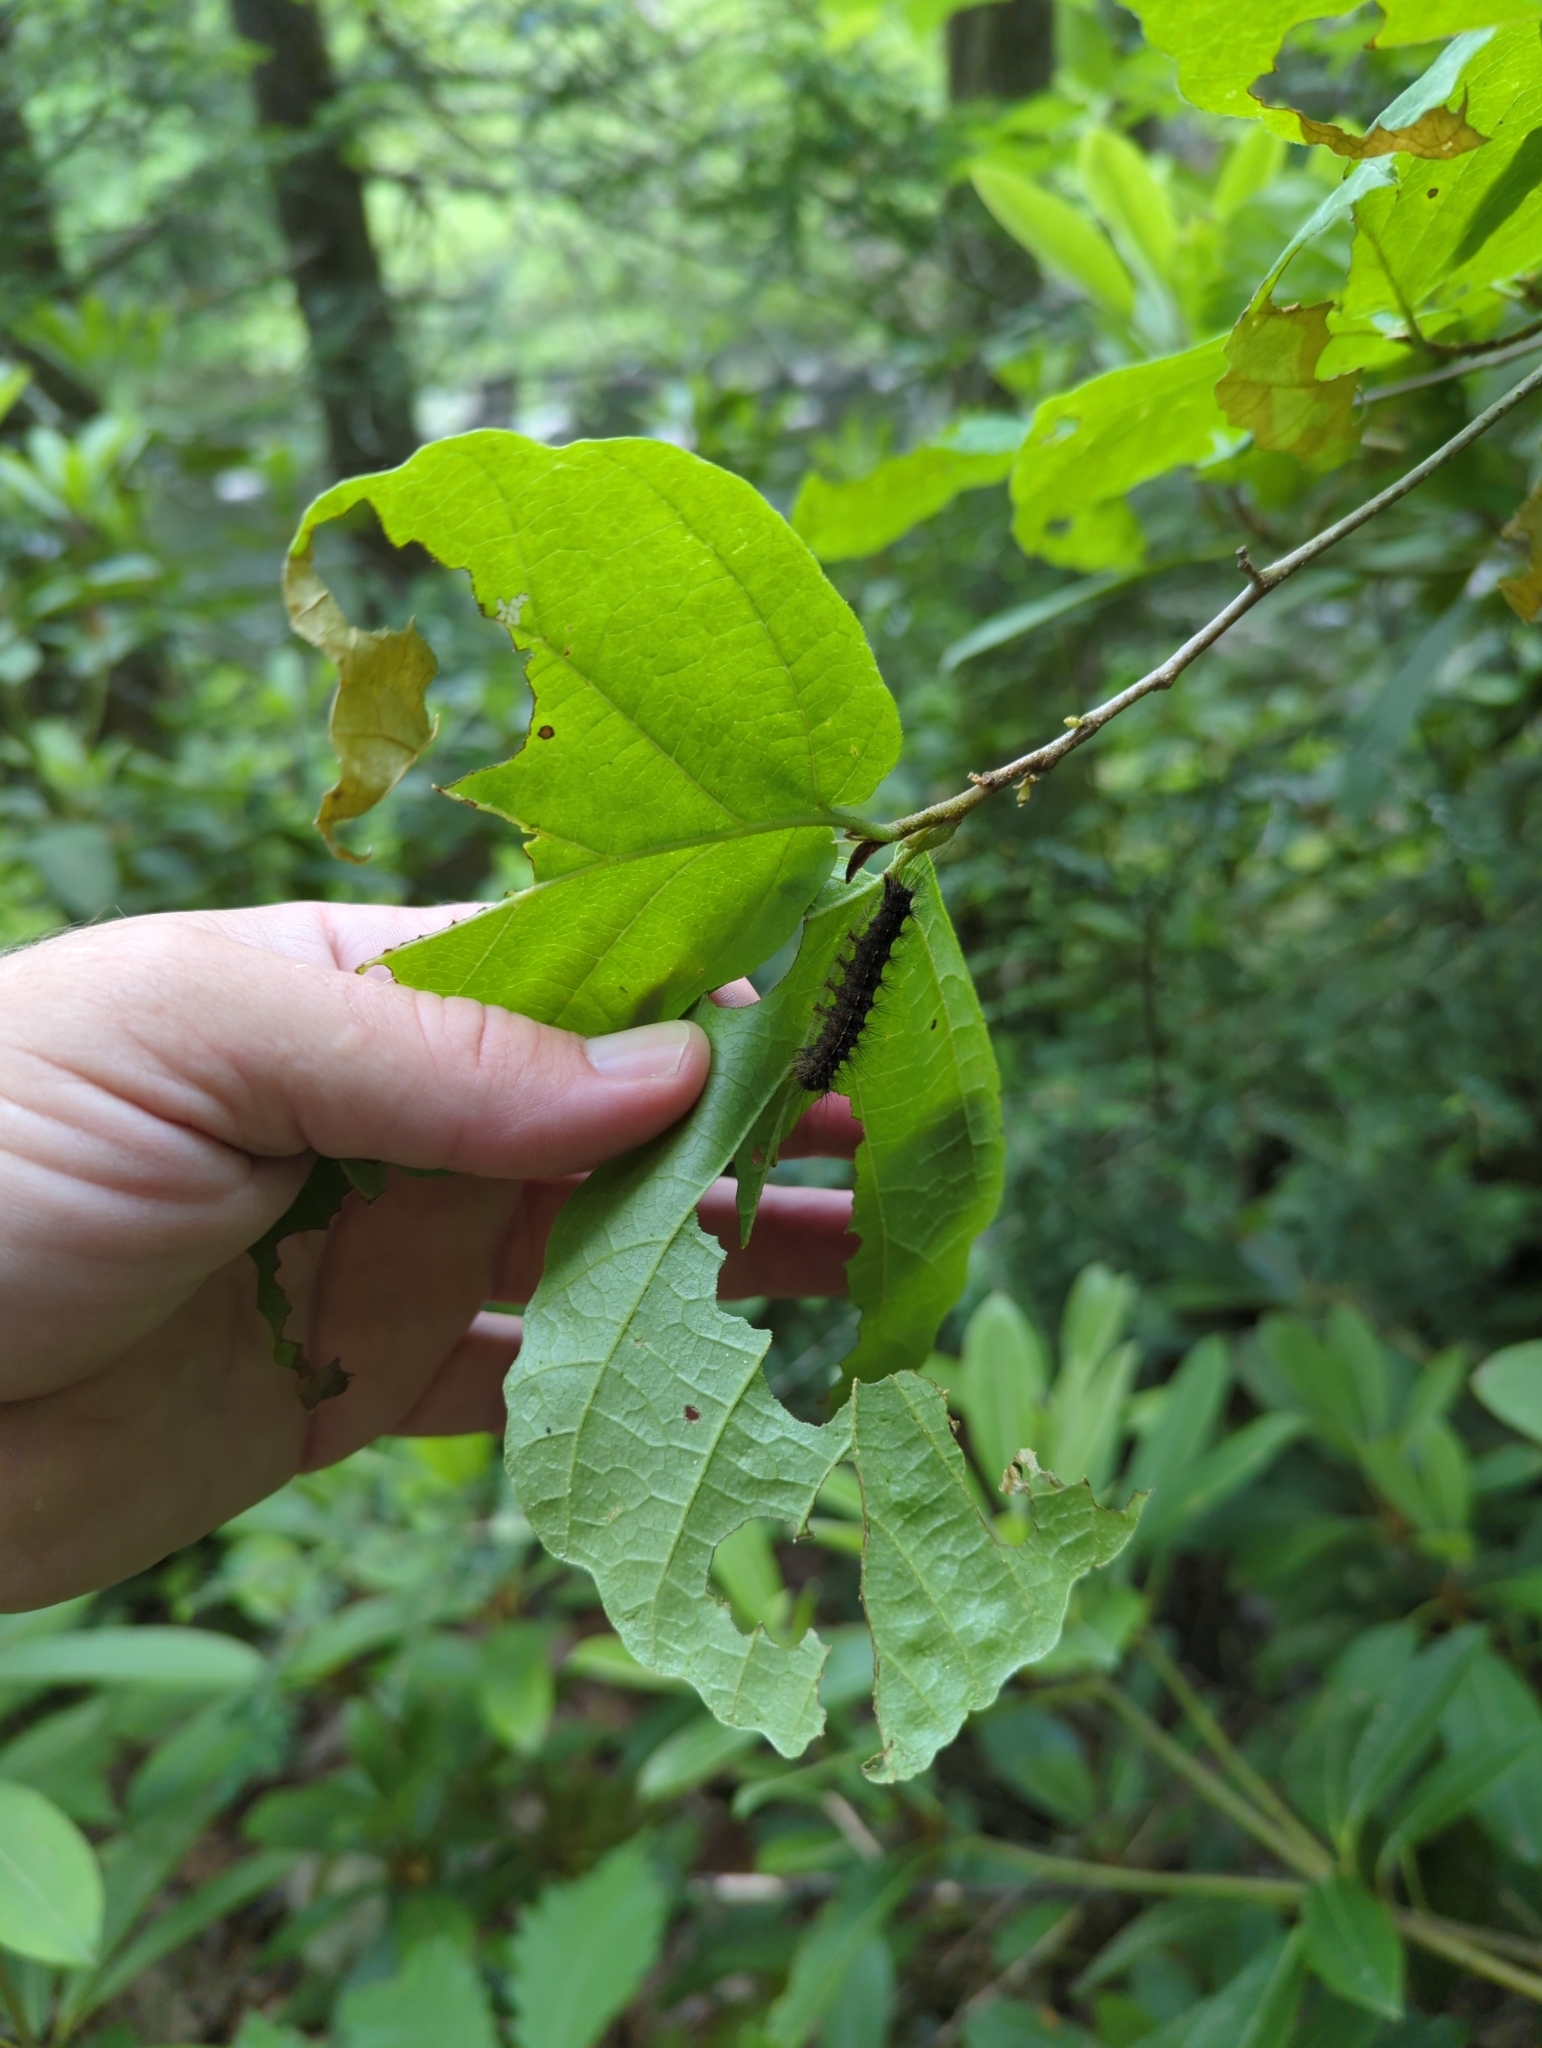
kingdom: Animalia
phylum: Arthropoda
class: Insecta
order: Lepidoptera
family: Erebidae
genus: Lymantria
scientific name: Lymantria dispar
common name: Gypsy moth
